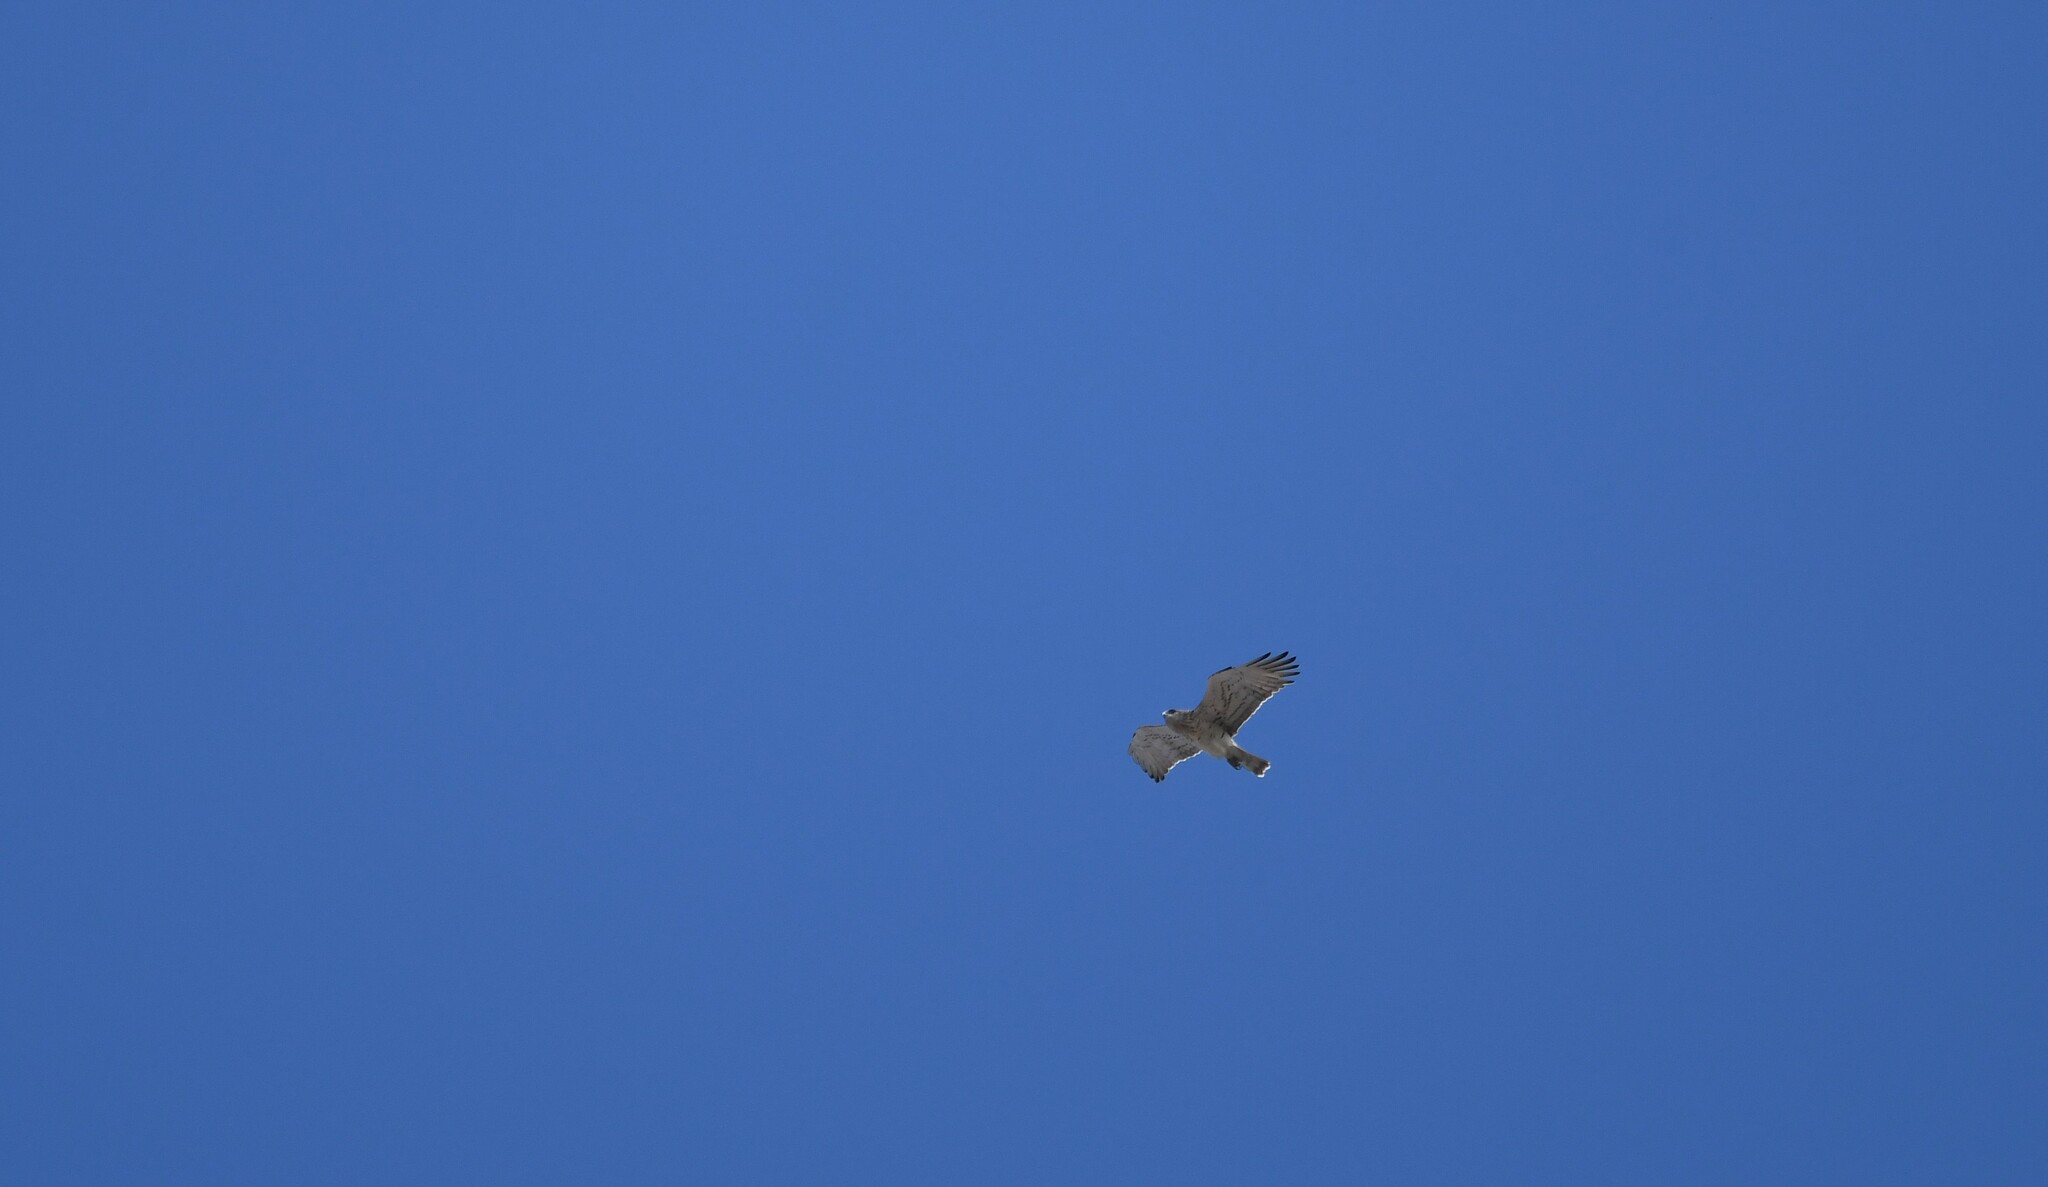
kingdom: Animalia
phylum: Chordata
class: Aves
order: Accipitriformes
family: Accipitridae
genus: Circaetus
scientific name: Circaetus gallicus
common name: Short-toed snake eagle
